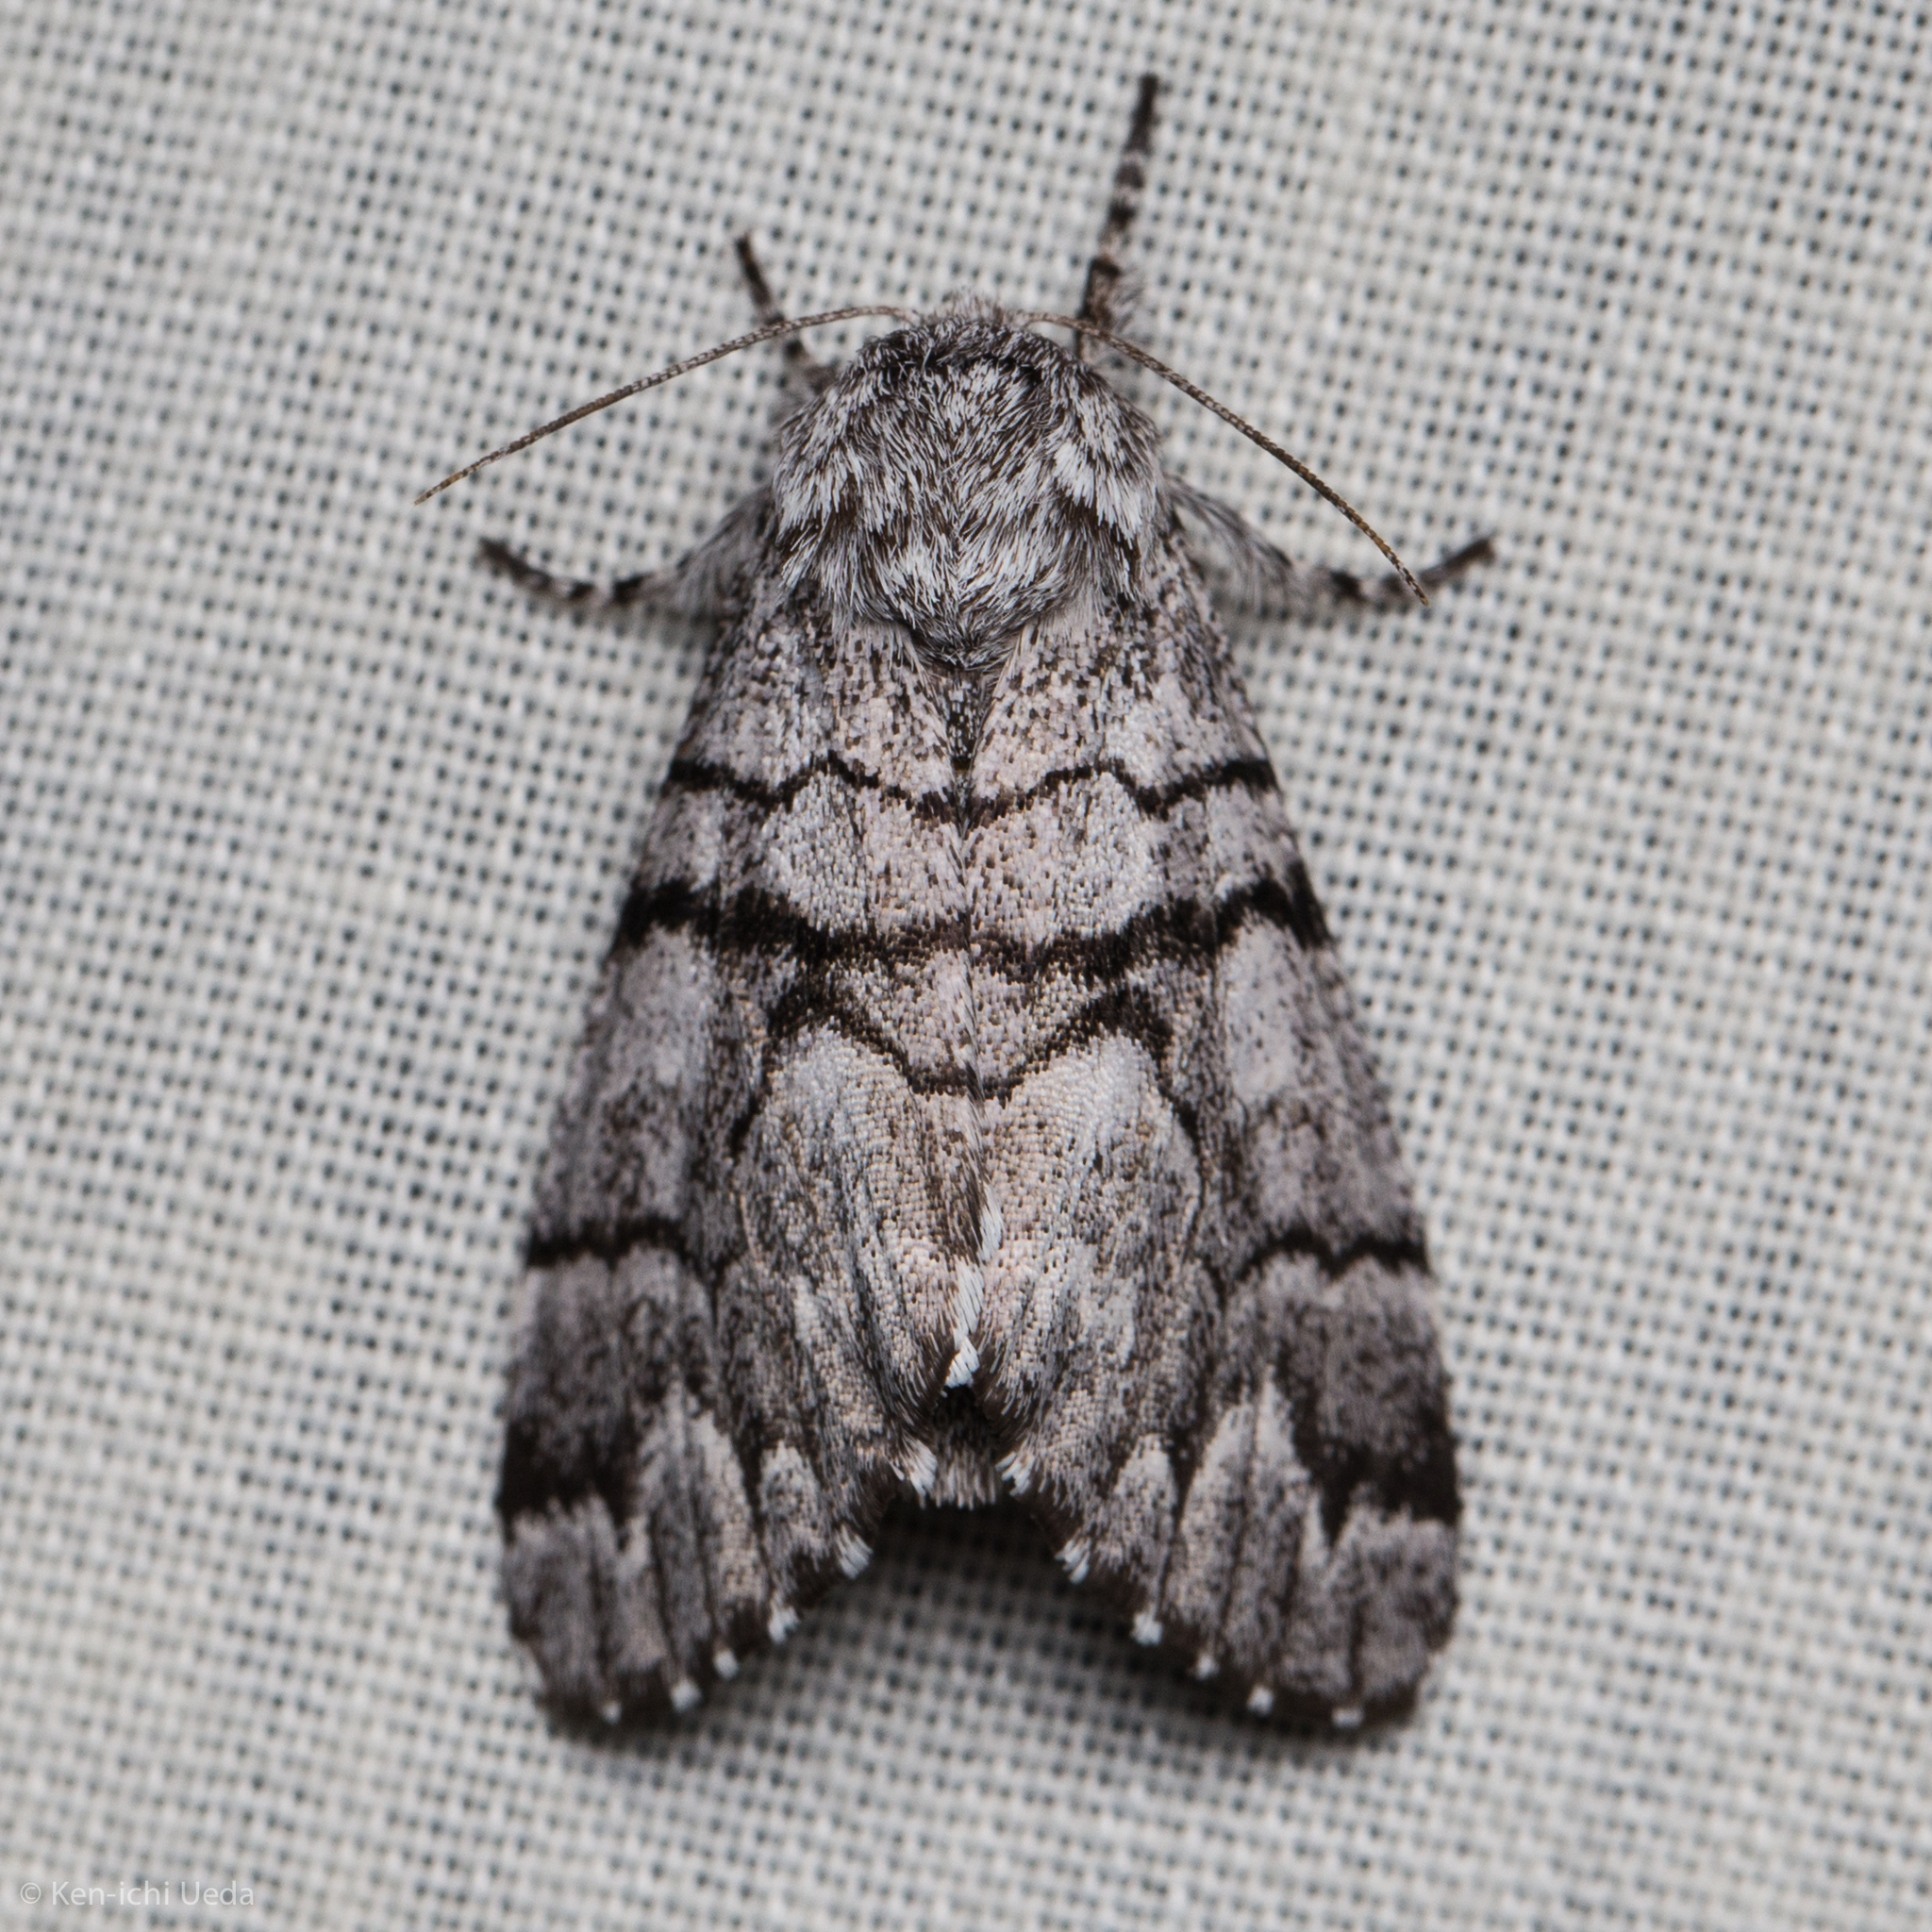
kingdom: Animalia
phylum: Arthropoda
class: Insecta
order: Lepidoptera
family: Noctuidae
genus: Panthea
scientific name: Panthea furcilla
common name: Eastern panthea moth
